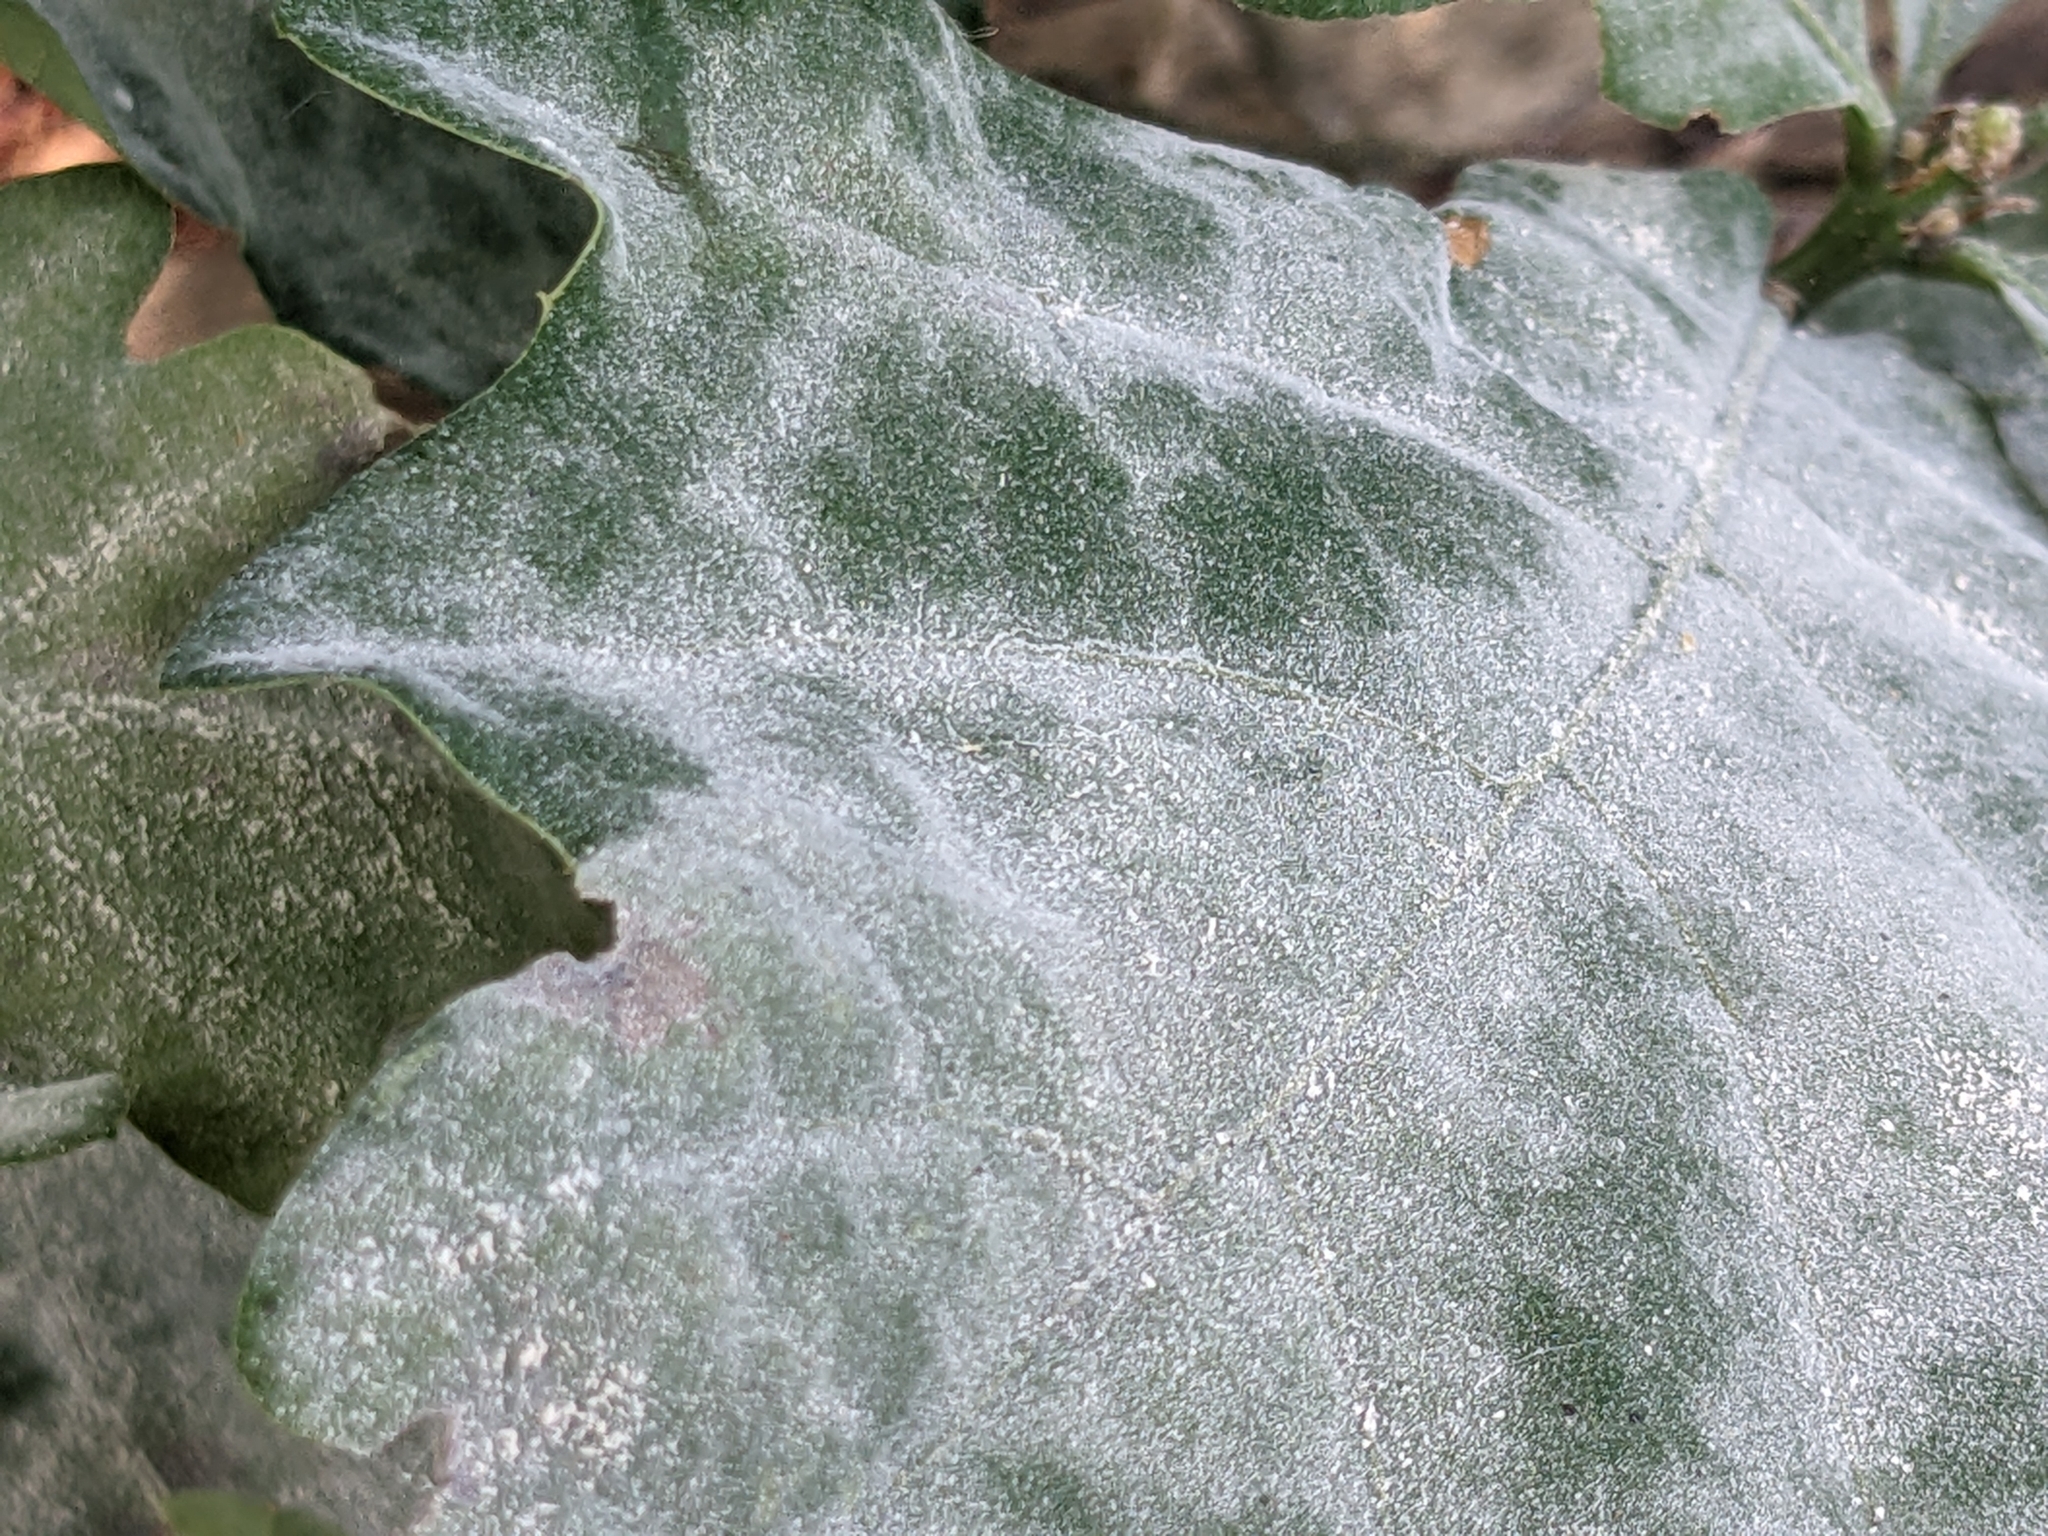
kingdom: Fungi
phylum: Ascomycota
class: Leotiomycetes
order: Helotiales
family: Erysiphaceae
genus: Erysiphe
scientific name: Erysiphe
